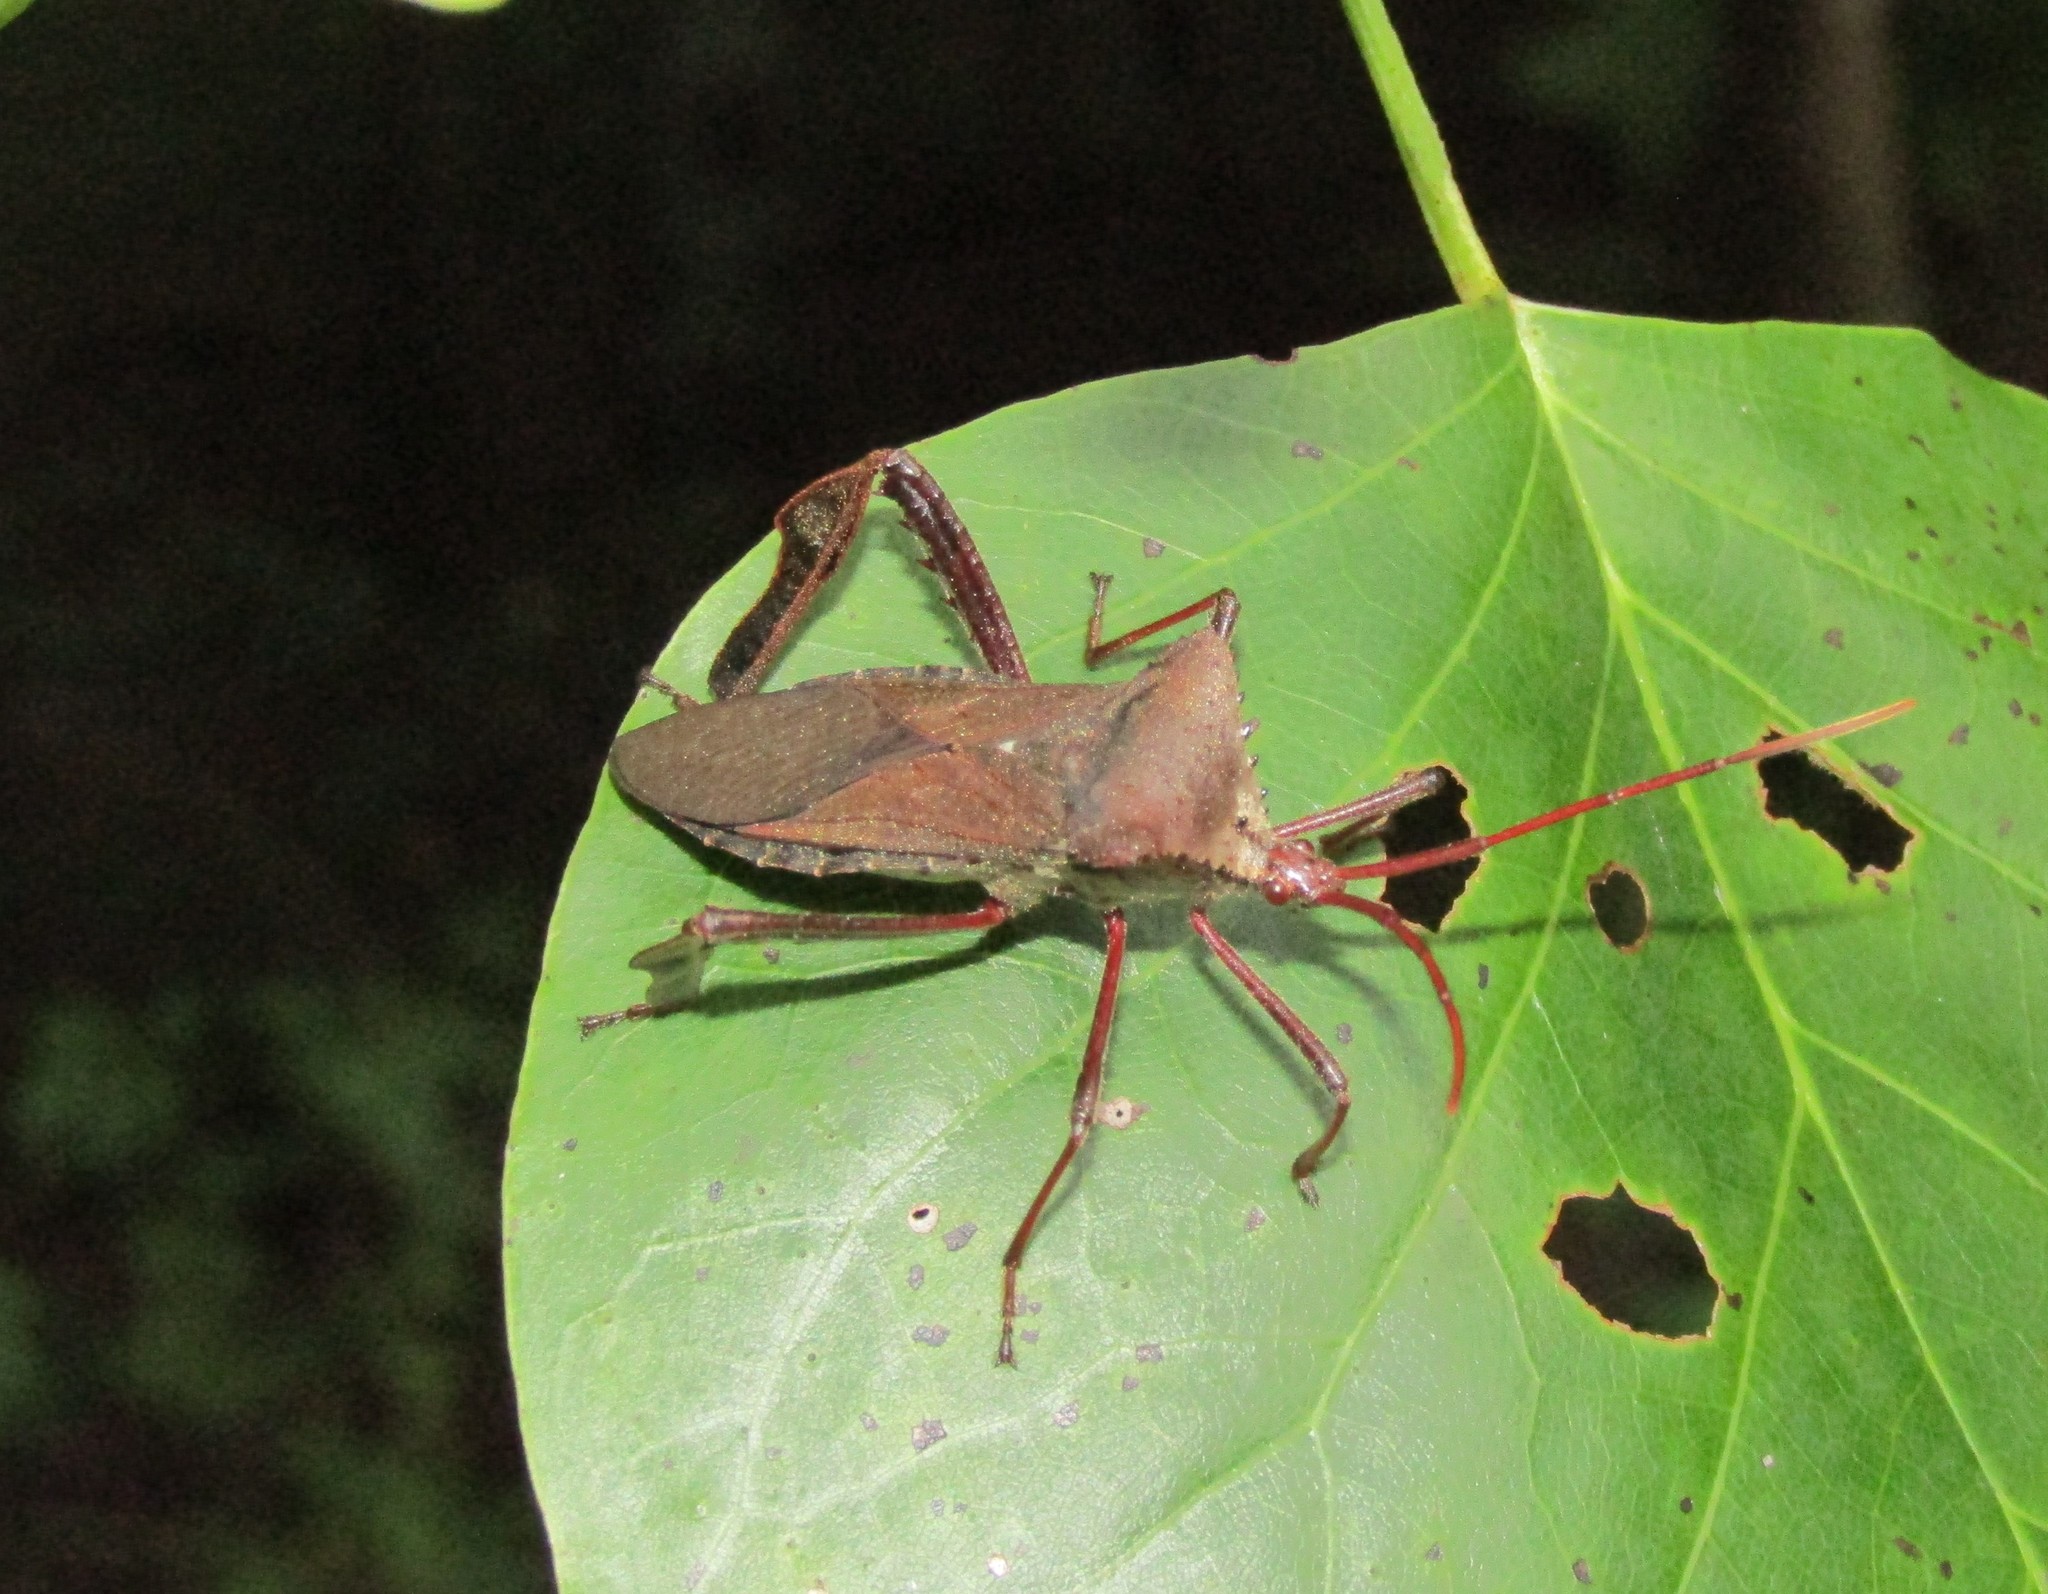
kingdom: Animalia
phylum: Arthropoda
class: Insecta
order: Hemiptera
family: Coreidae
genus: Acanthocephala
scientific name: Acanthocephala declivis
